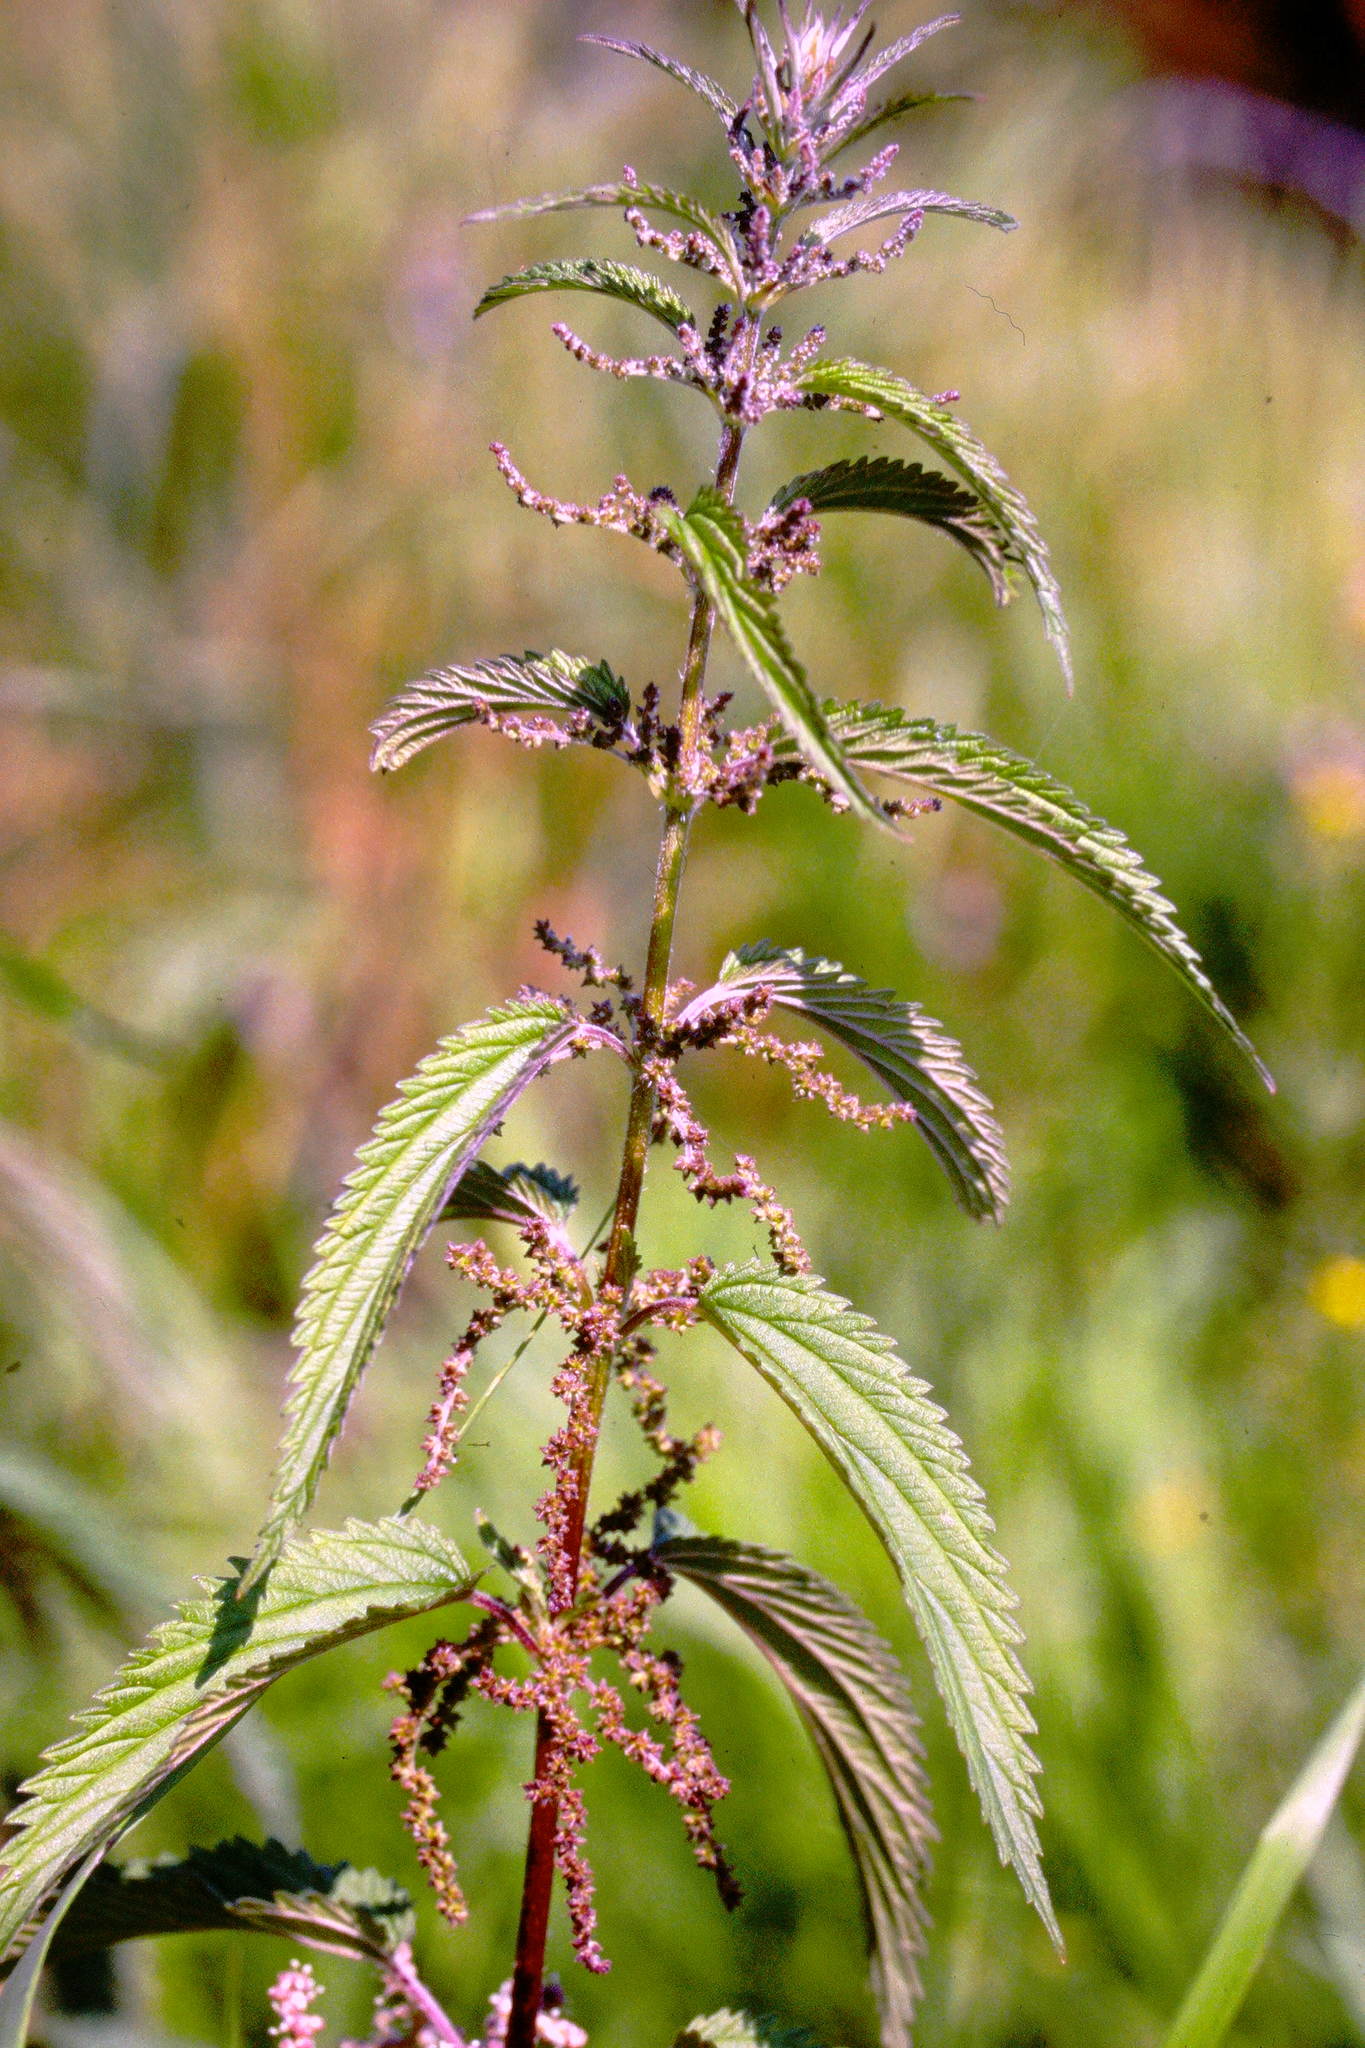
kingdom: Plantae
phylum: Tracheophyta
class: Magnoliopsida
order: Rosales
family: Urticaceae
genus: Urtica
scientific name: Urtica dioica
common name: Common nettle
